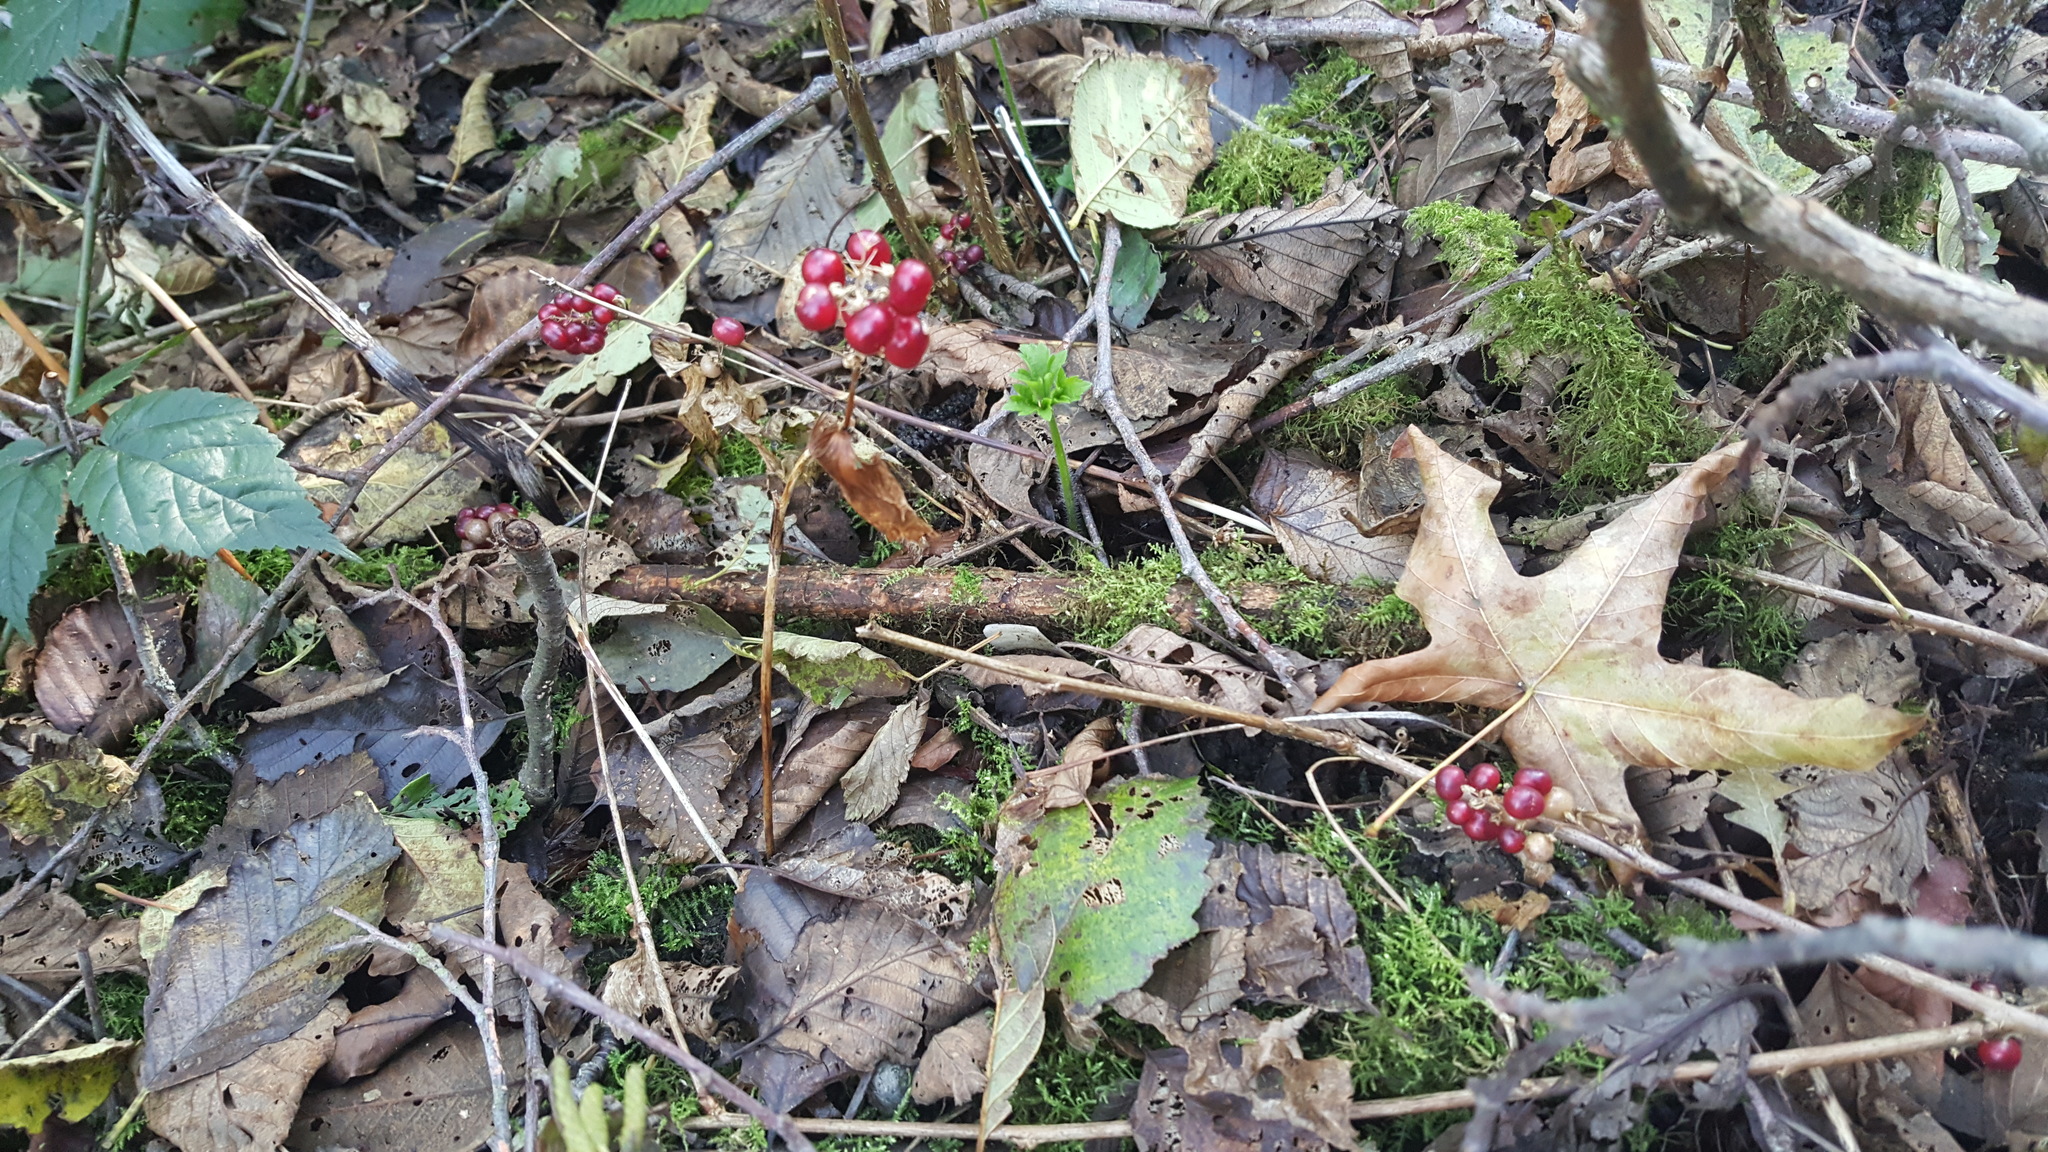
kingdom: Plantae
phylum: Tracheophyta
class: Liliopsida
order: Asparagales
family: Asparagaceae
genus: Maianthemum
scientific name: Maianthemum dilatatum
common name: False lily-of-the-valley
